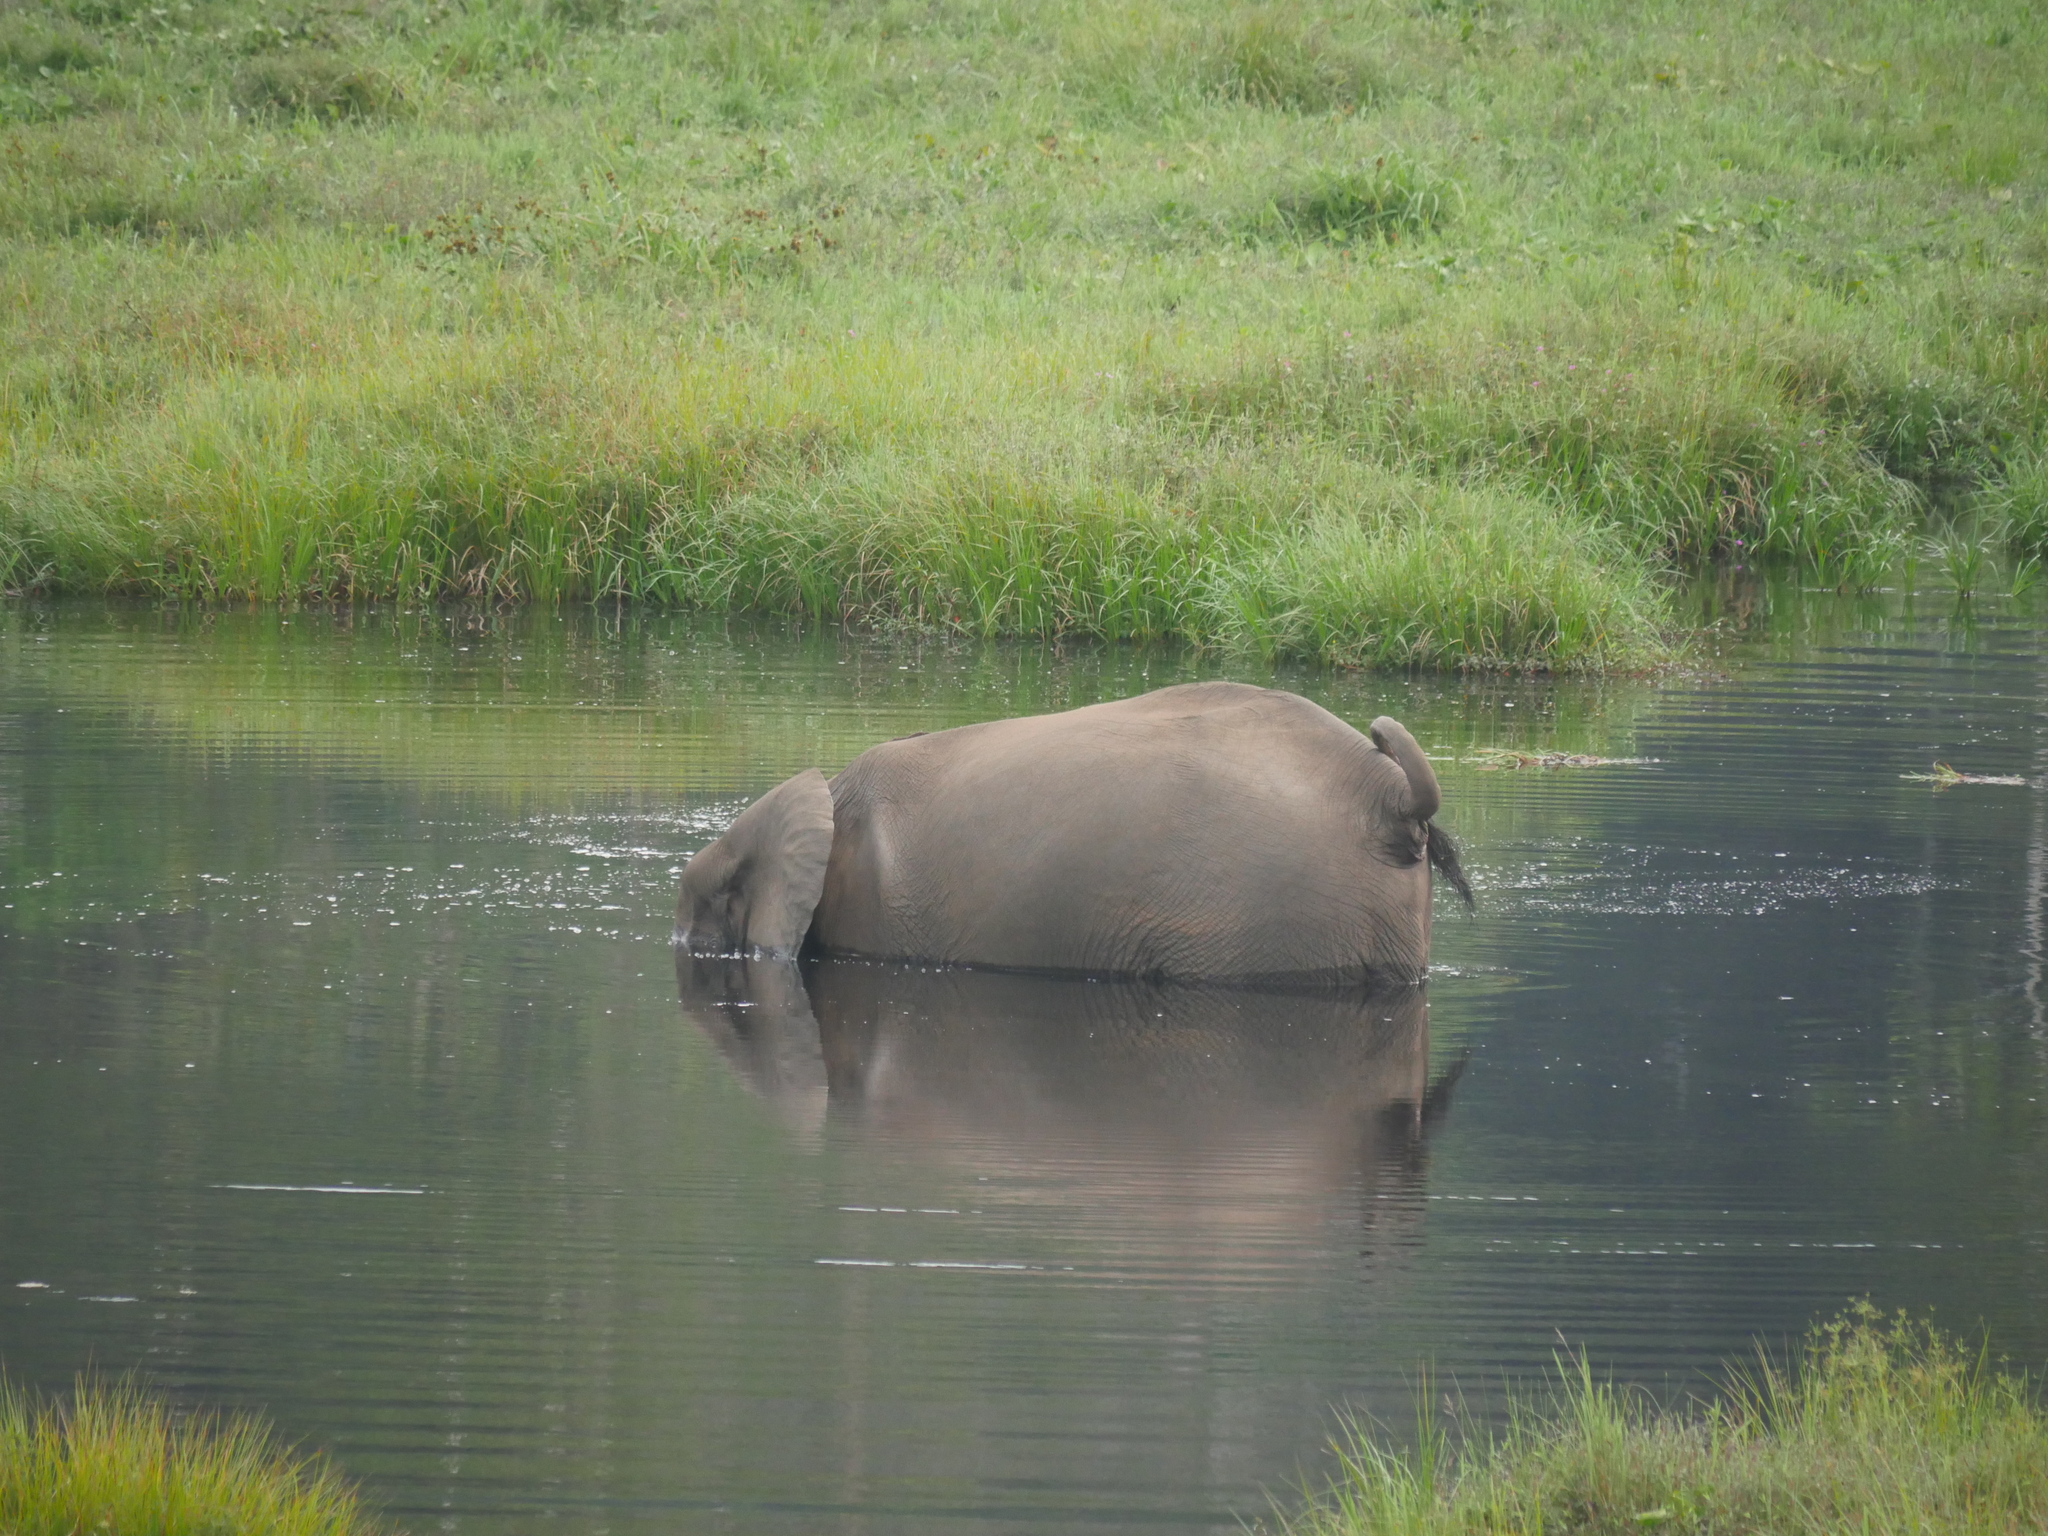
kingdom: Animalia
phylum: Chordata
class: Mammalia
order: Proboscidea
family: Elephantidae
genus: Loxodonta
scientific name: Loxodonta cyclotis
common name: African forest elephant
